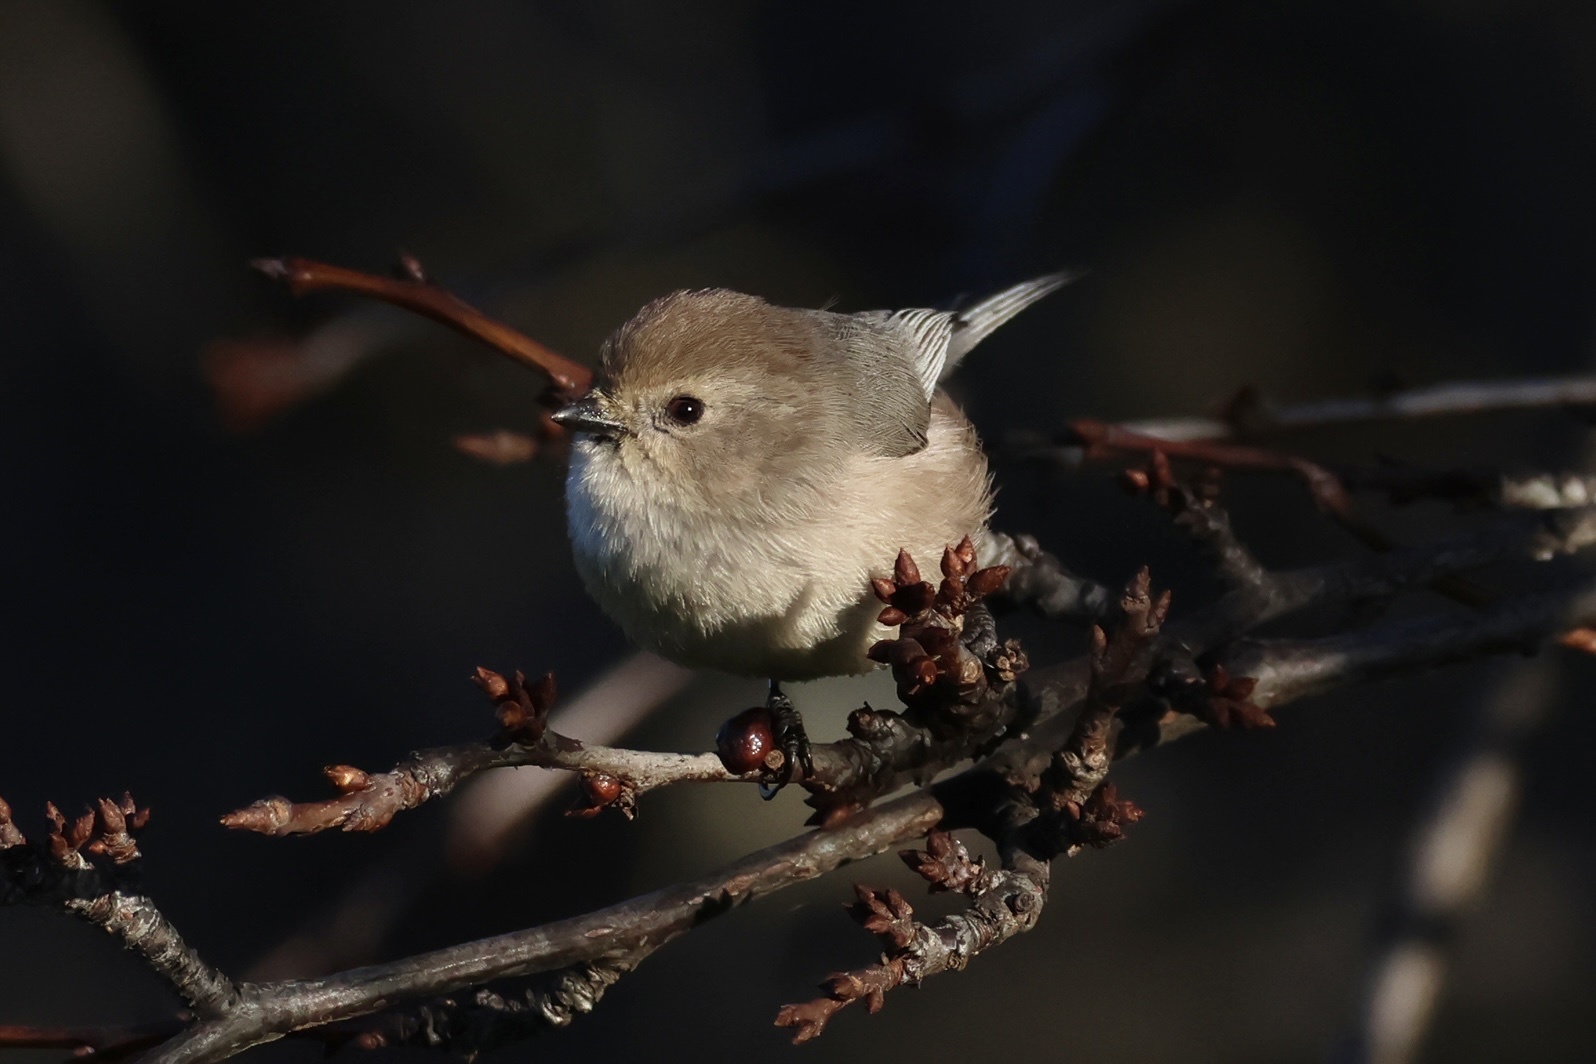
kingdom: Animalia
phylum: Chordata
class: Aves
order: Passeriformes
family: Aegithalidae
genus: Psaltriparus
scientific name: Psaltriparus minimus
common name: American bushtit
